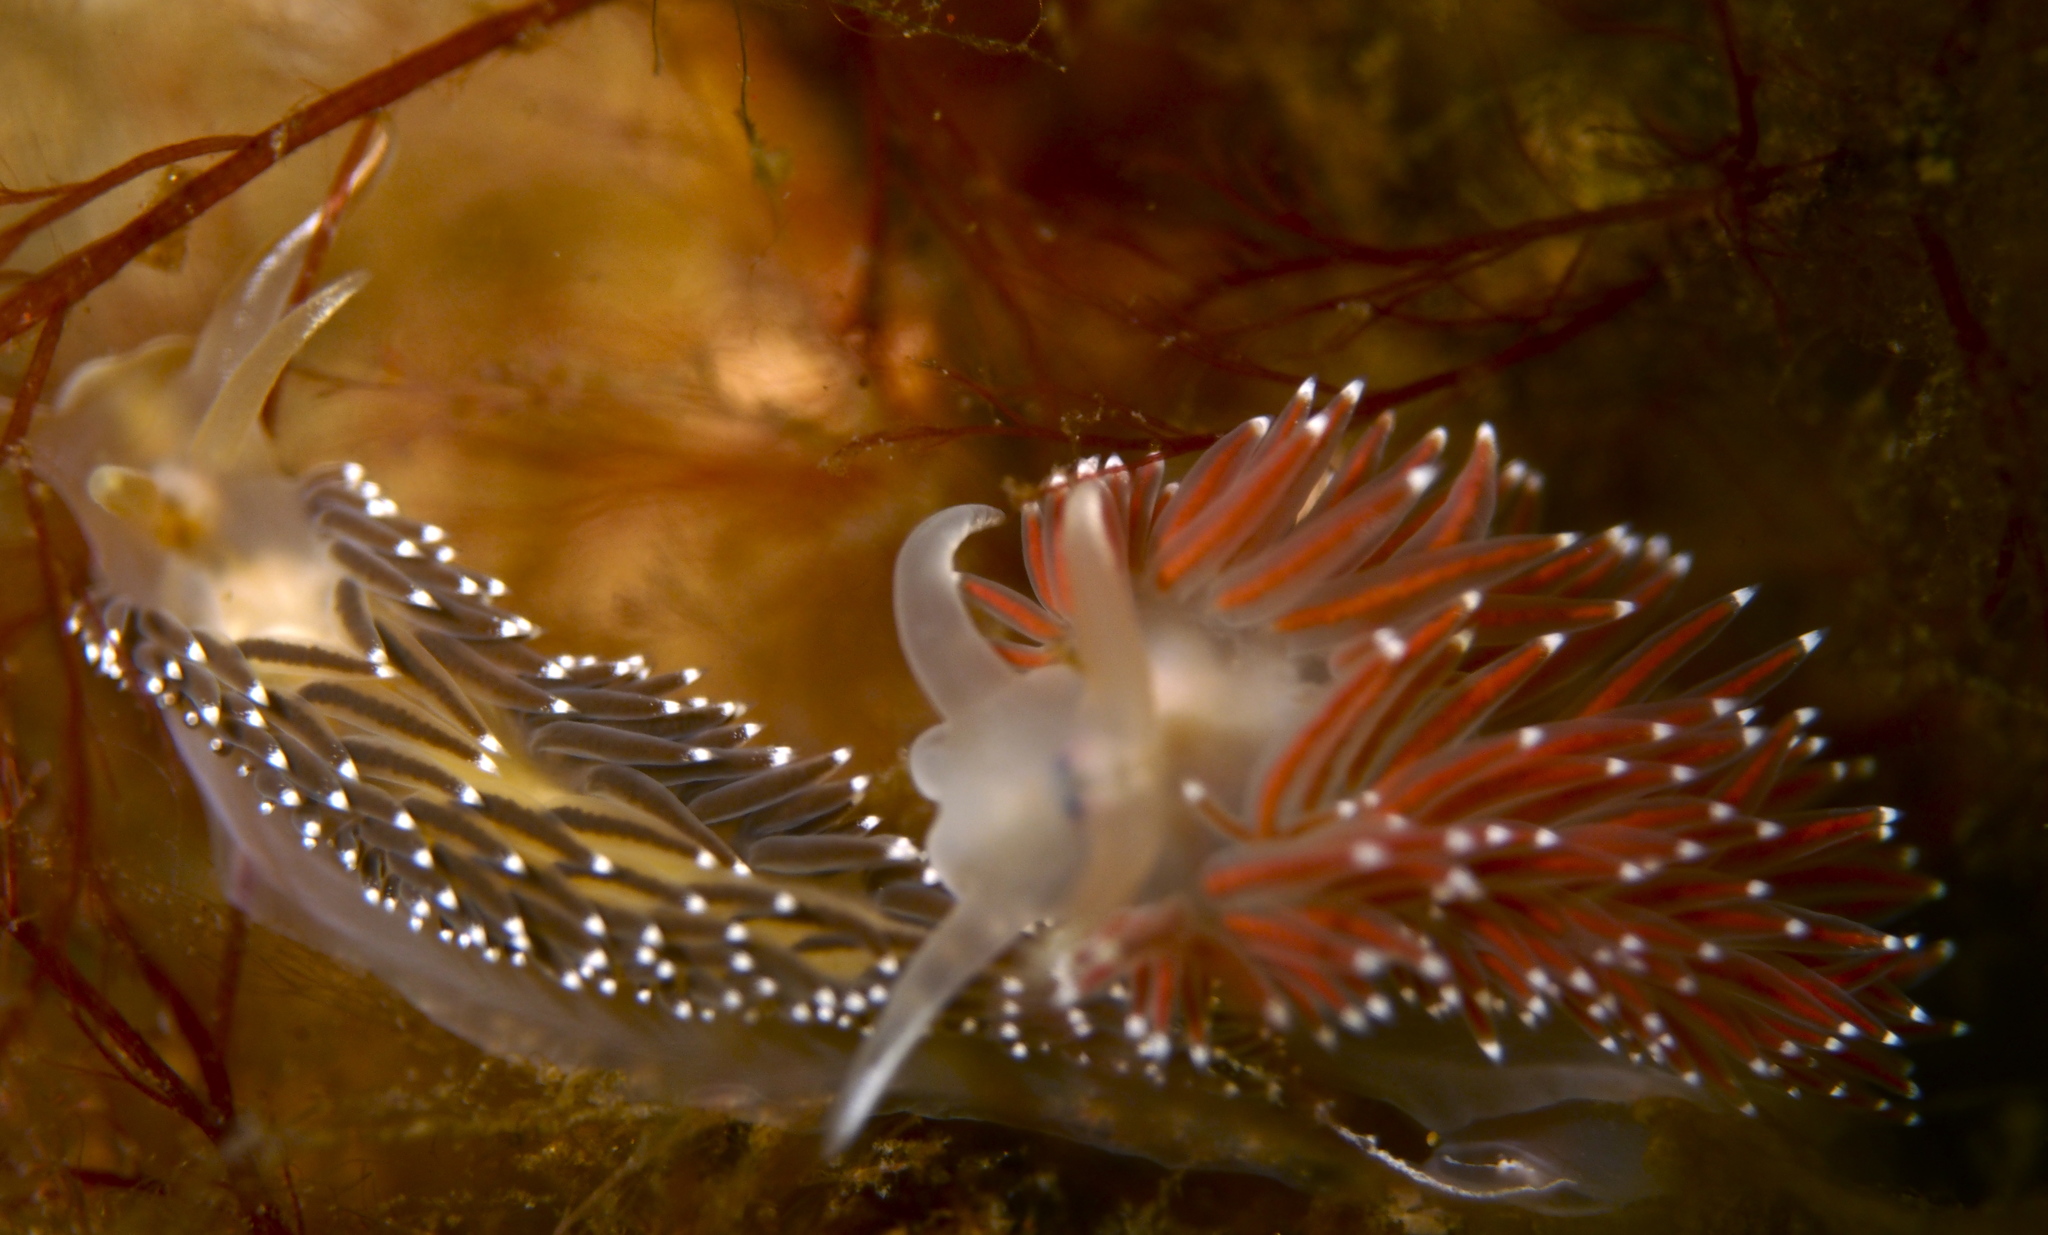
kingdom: Animalia
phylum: Mollusca
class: Gastropoda
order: Nudibranchia
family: Coryphellidae
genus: Coryphella
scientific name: Coryphella nobilis
